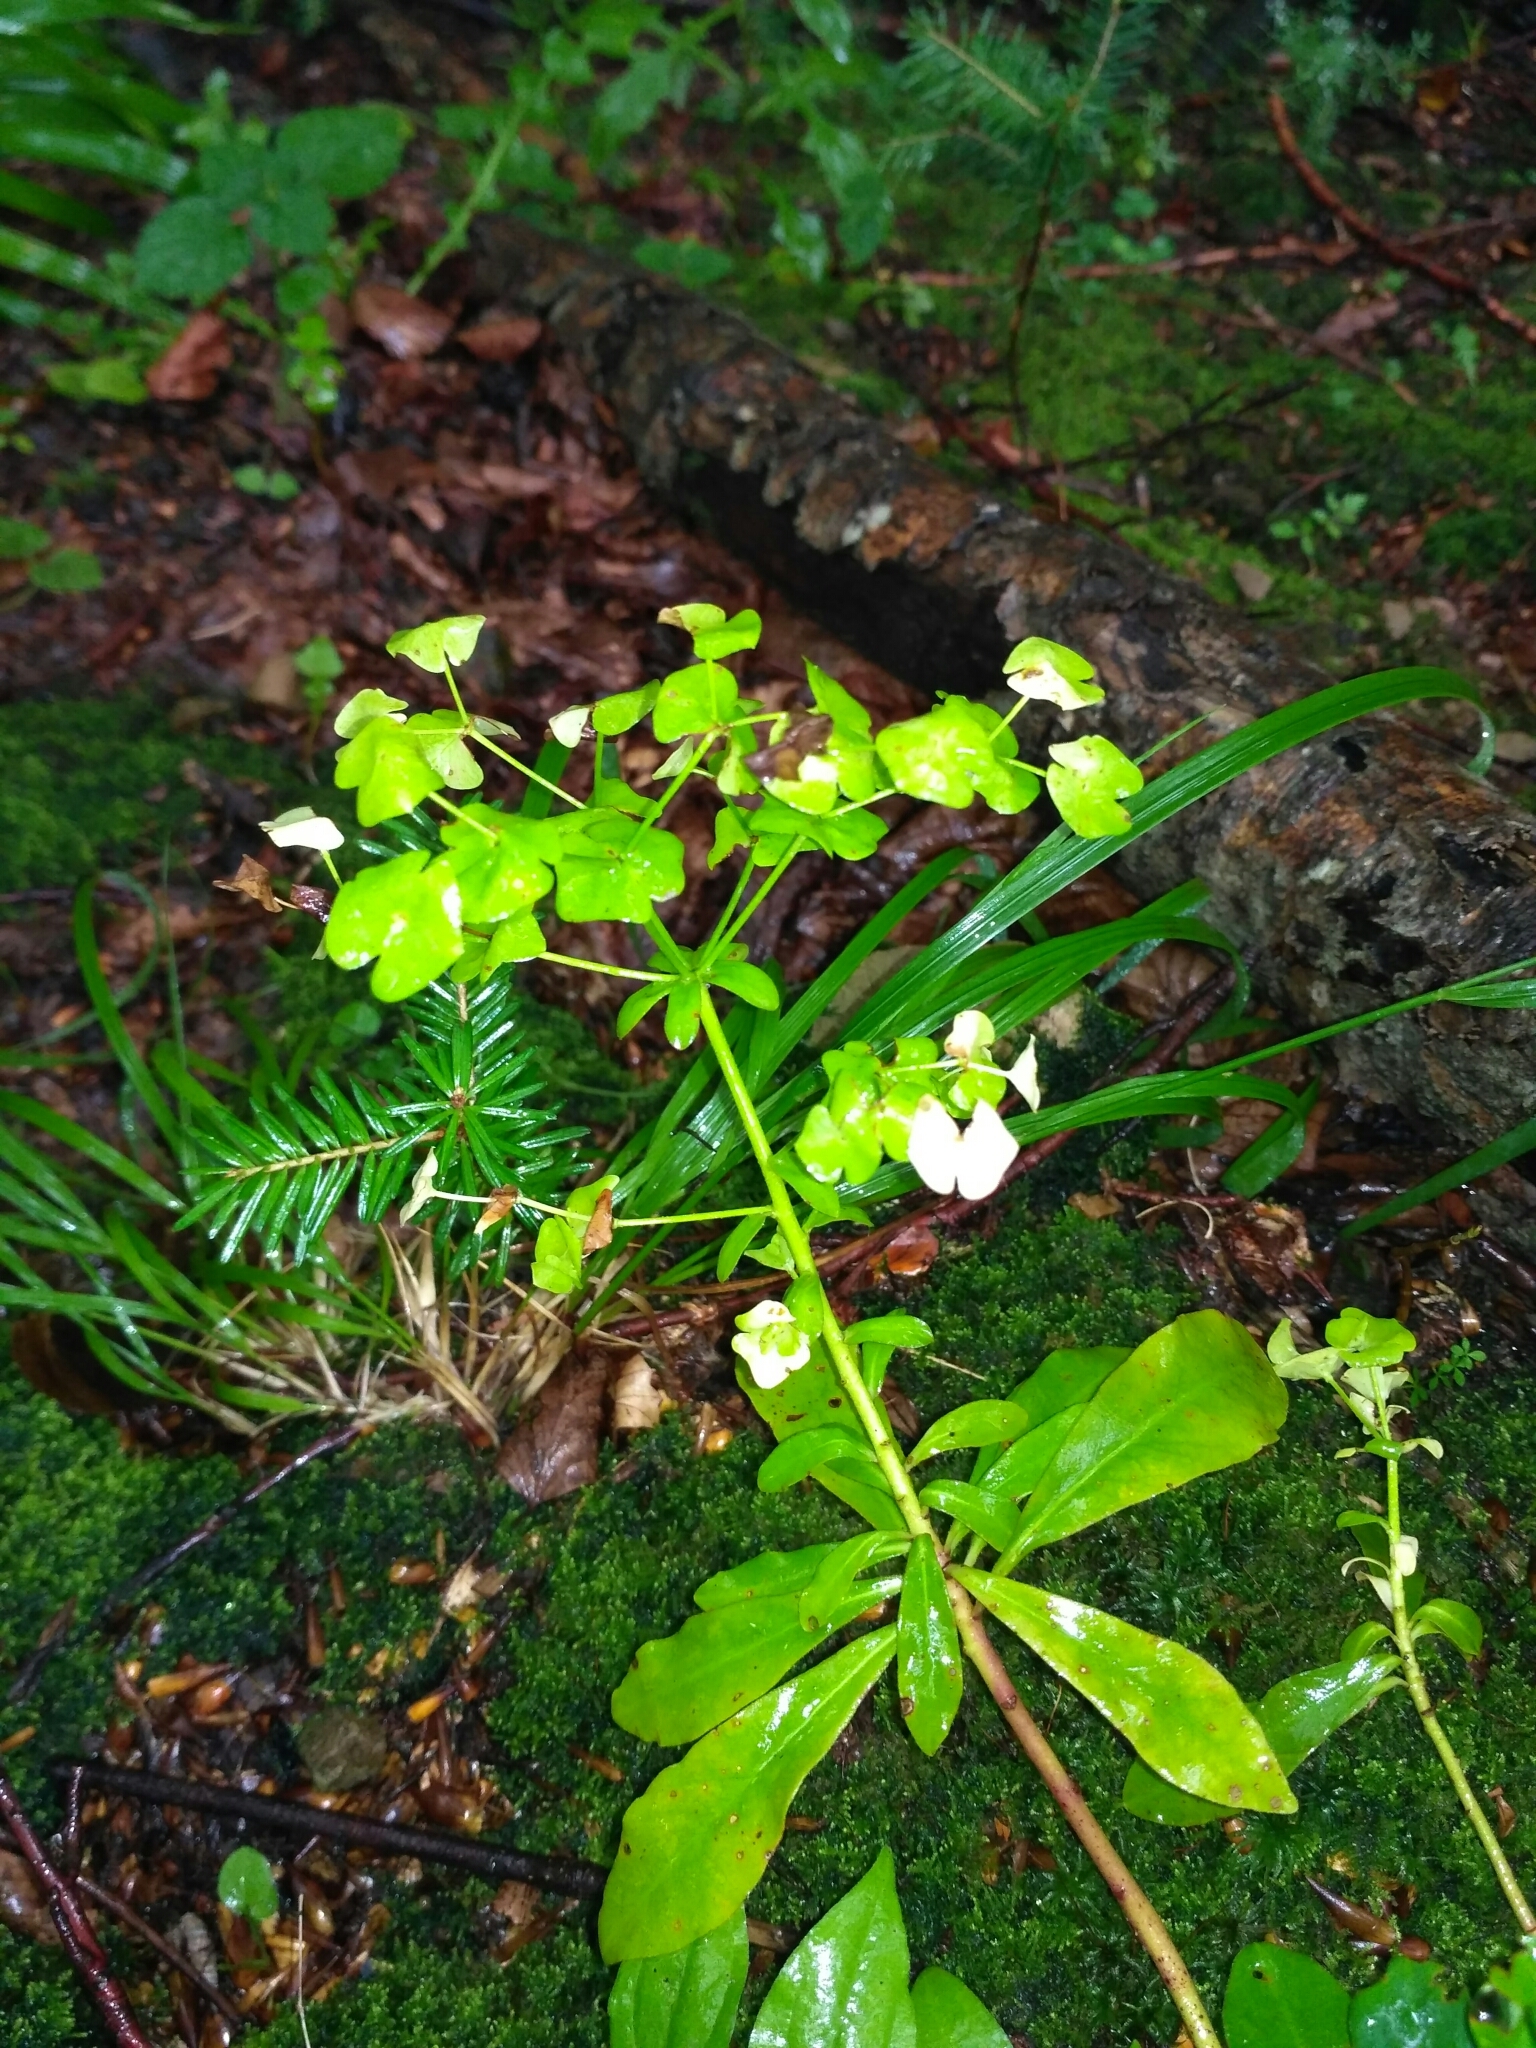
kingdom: Plantae
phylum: Tracheophyta
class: Magnoliopsida
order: Malpighiales
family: Euphorbiaceae
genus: Euphorbia
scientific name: Euphorbia amygdaloides
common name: Wood spurge
